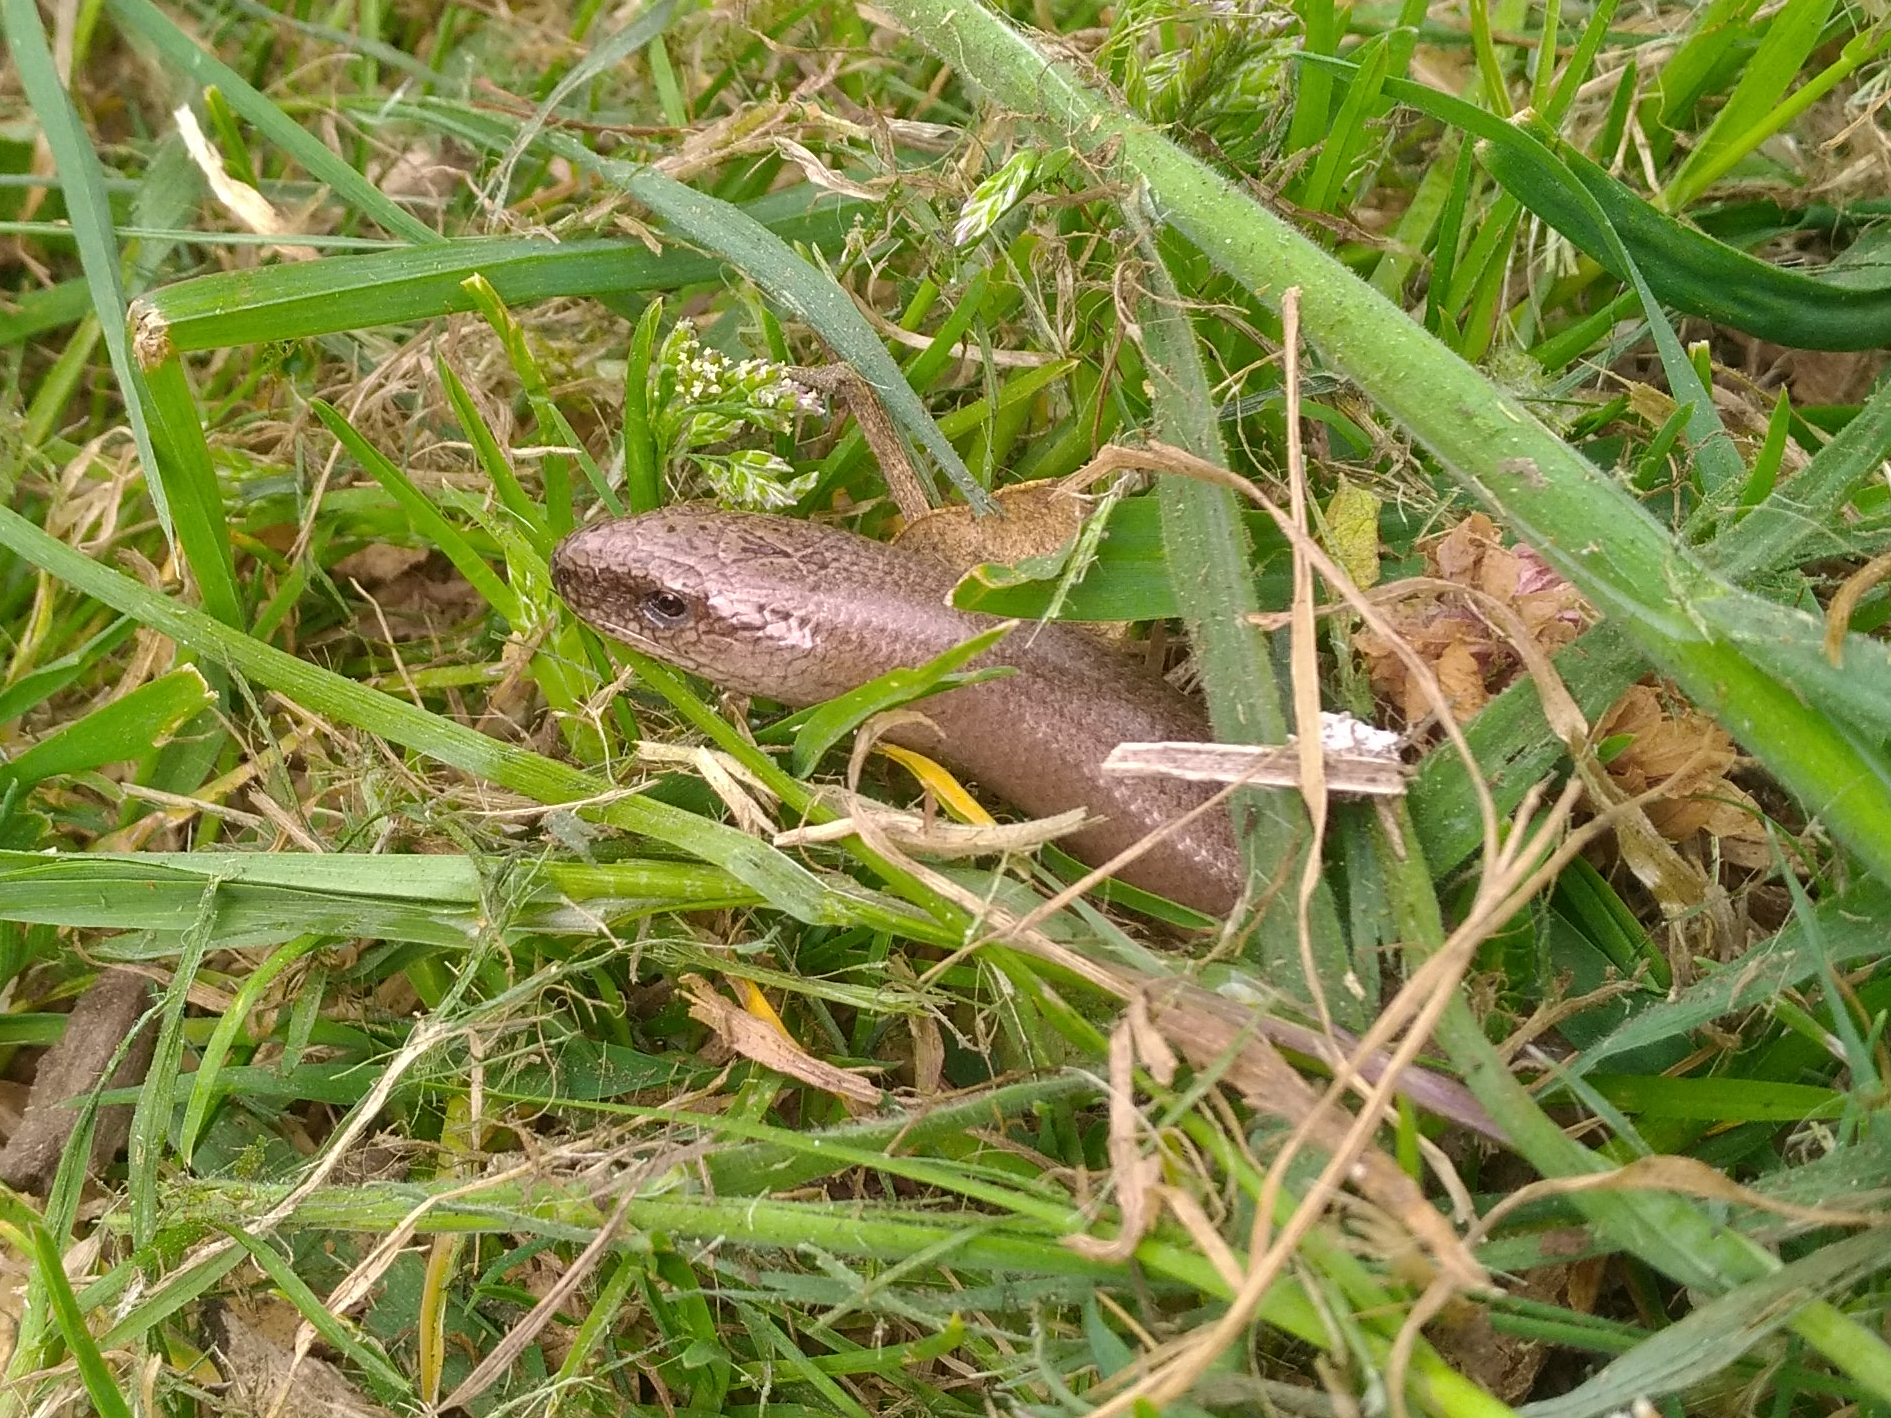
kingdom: Animalia
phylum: Chordata
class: Squamata
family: Anguidae
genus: Anguis
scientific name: Anguis fragilis
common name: Slow worm
